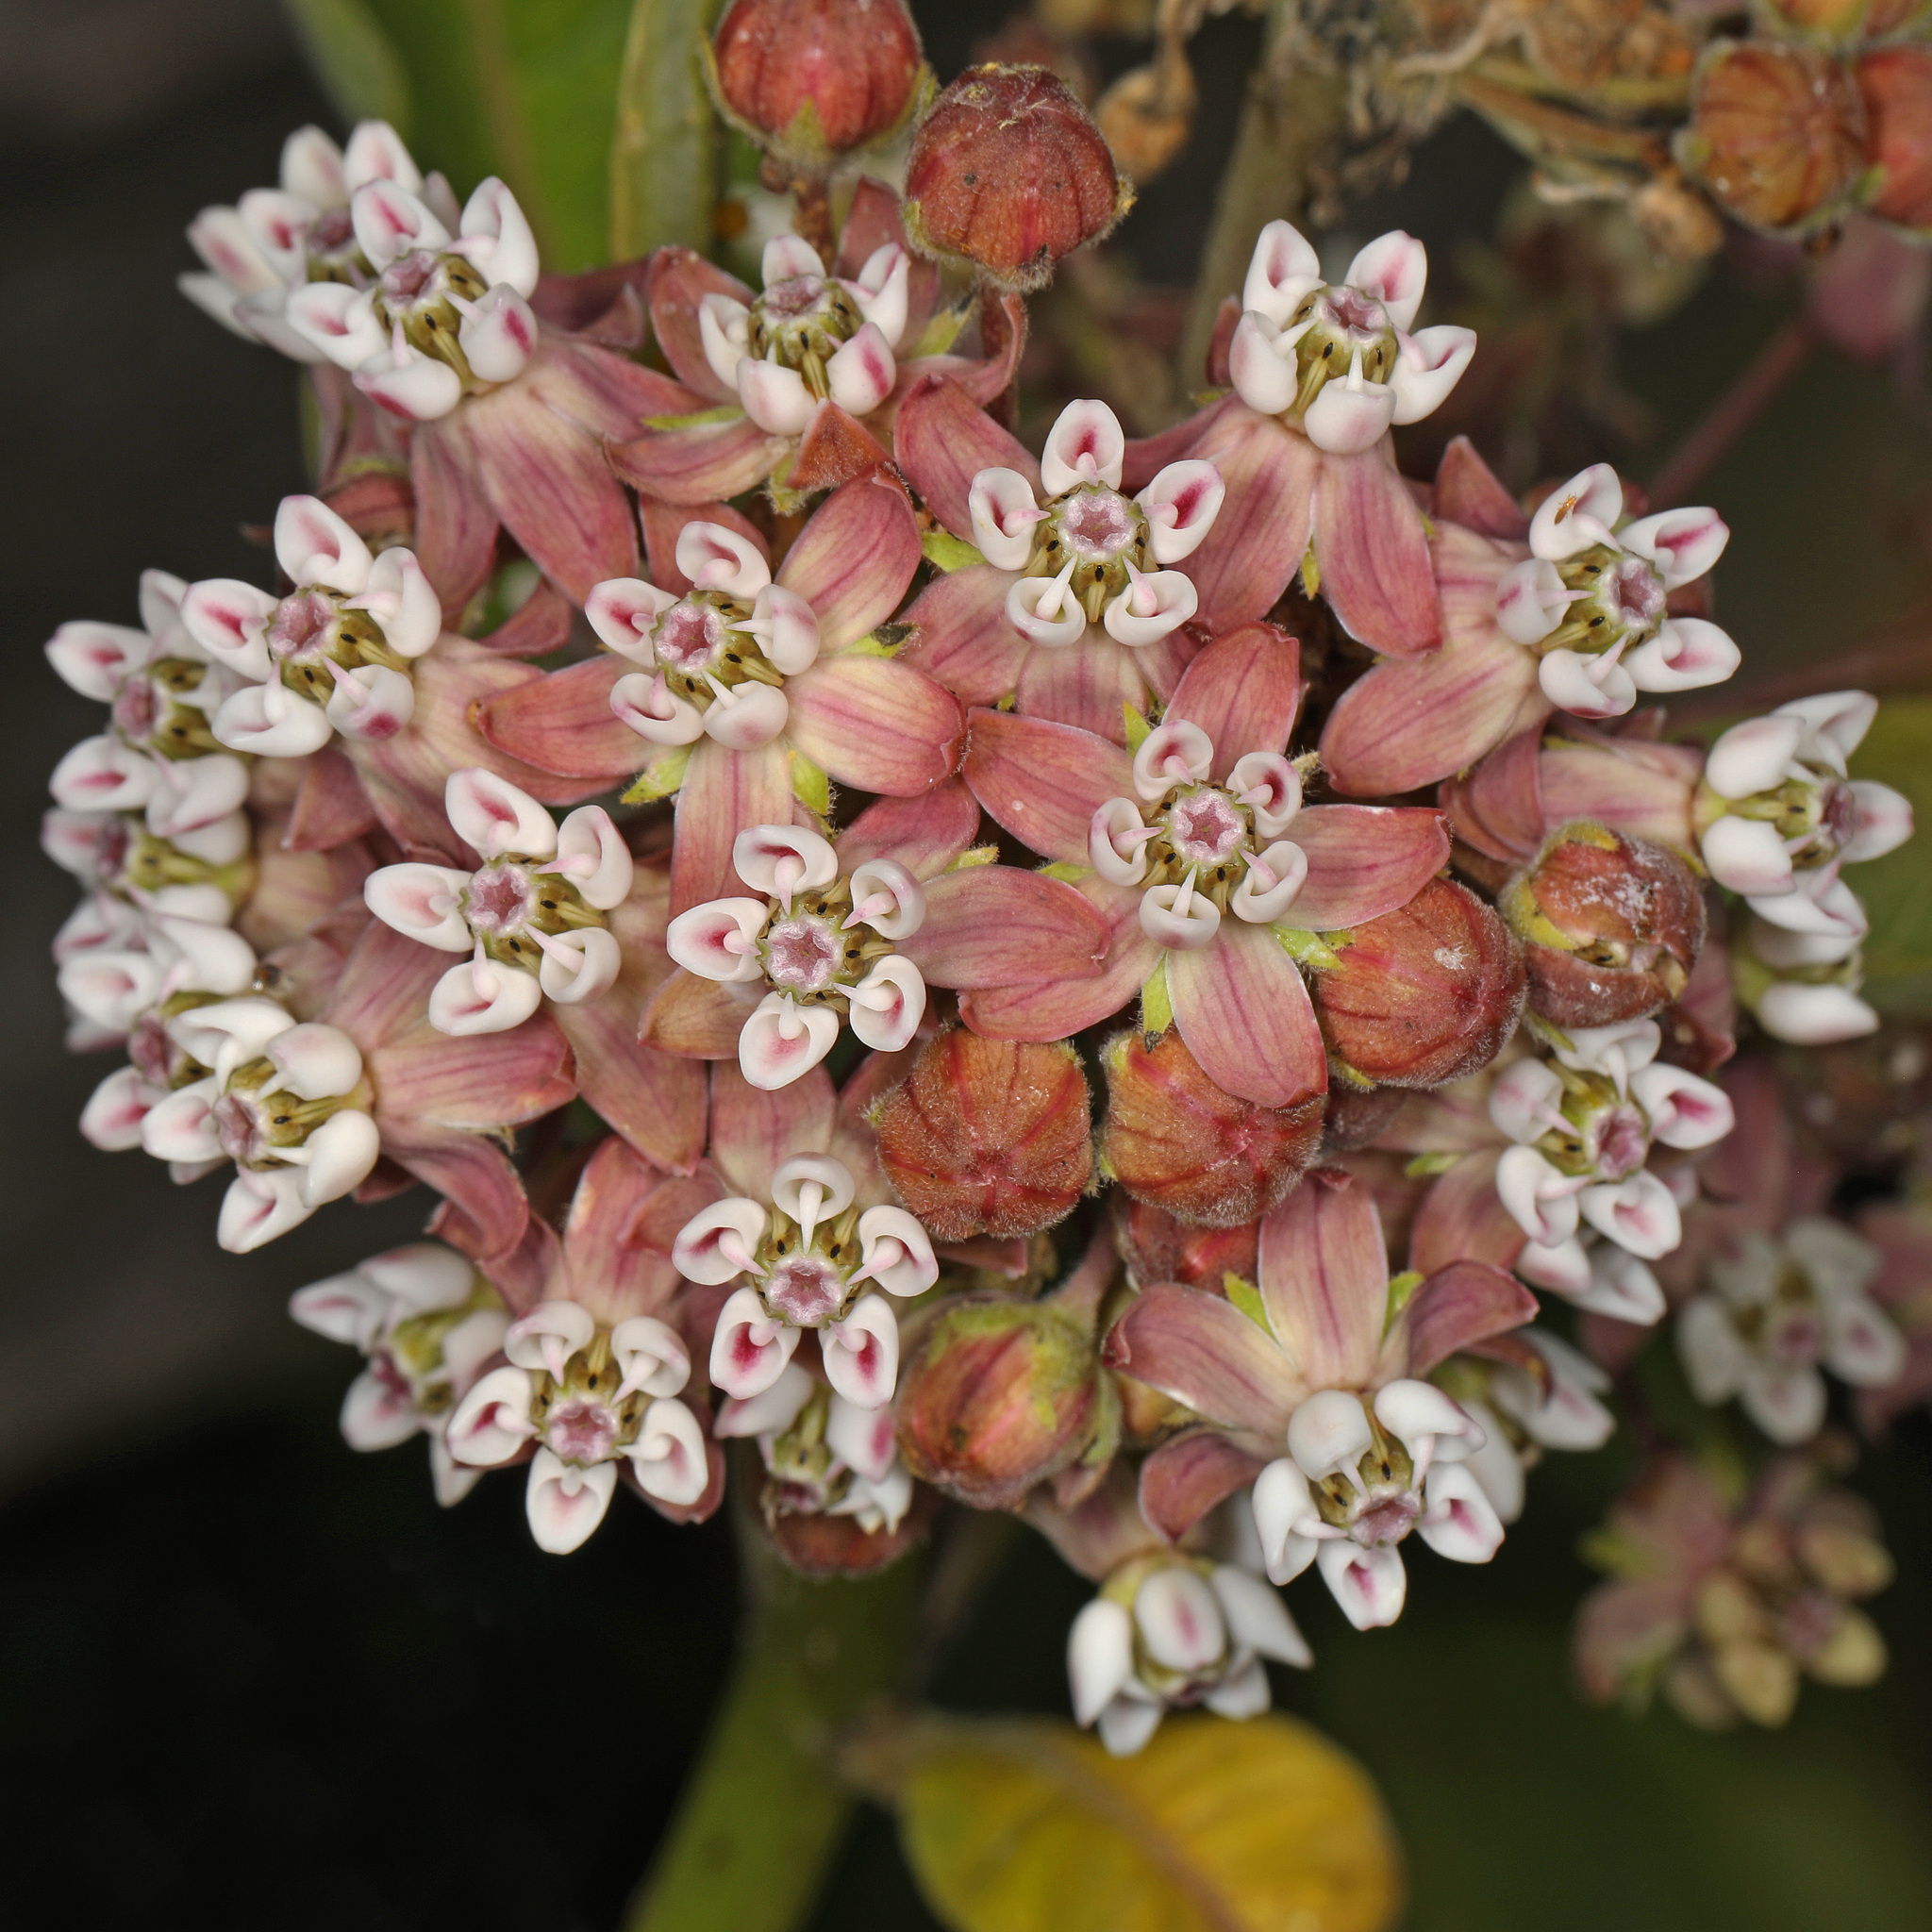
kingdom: Plantae
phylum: Tracheophyta
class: Magnoliopsida
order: Gentianales
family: Apocynaceae
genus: Asclepias
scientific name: Asclepias syriaca
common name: Common milkweed
